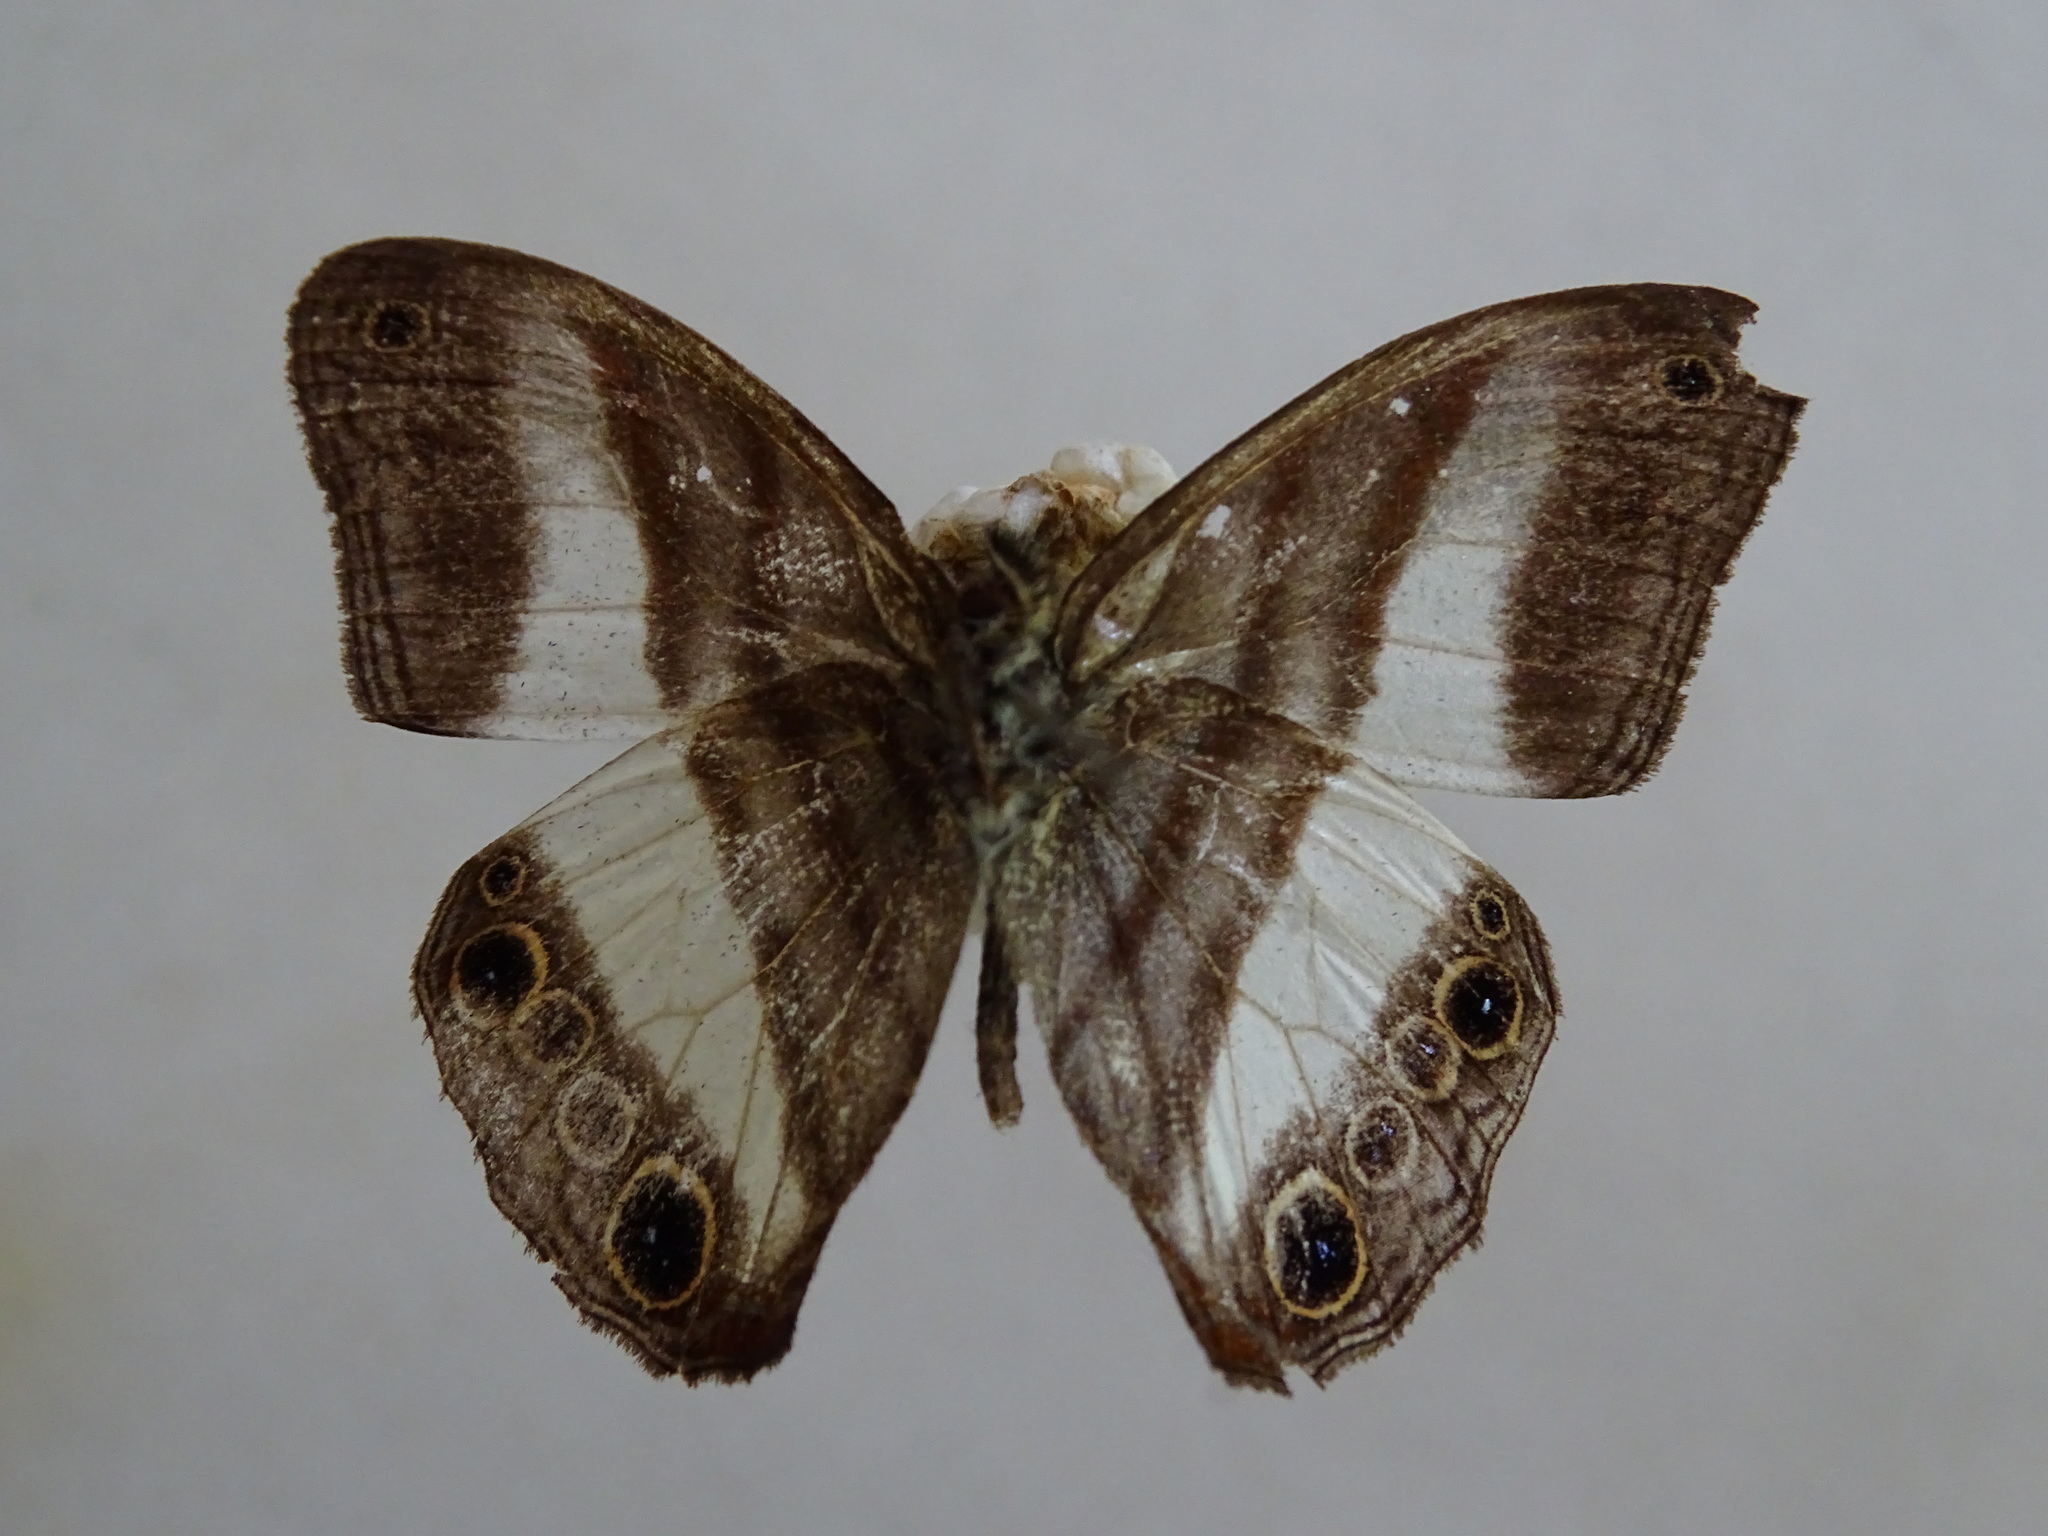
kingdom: Animalia
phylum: Arthropoda
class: Insecta
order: Lepidoptera
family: Nymphalidae
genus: Pareuptychia
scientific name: Pareuptychia metaleuca
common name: White-banded satyr
